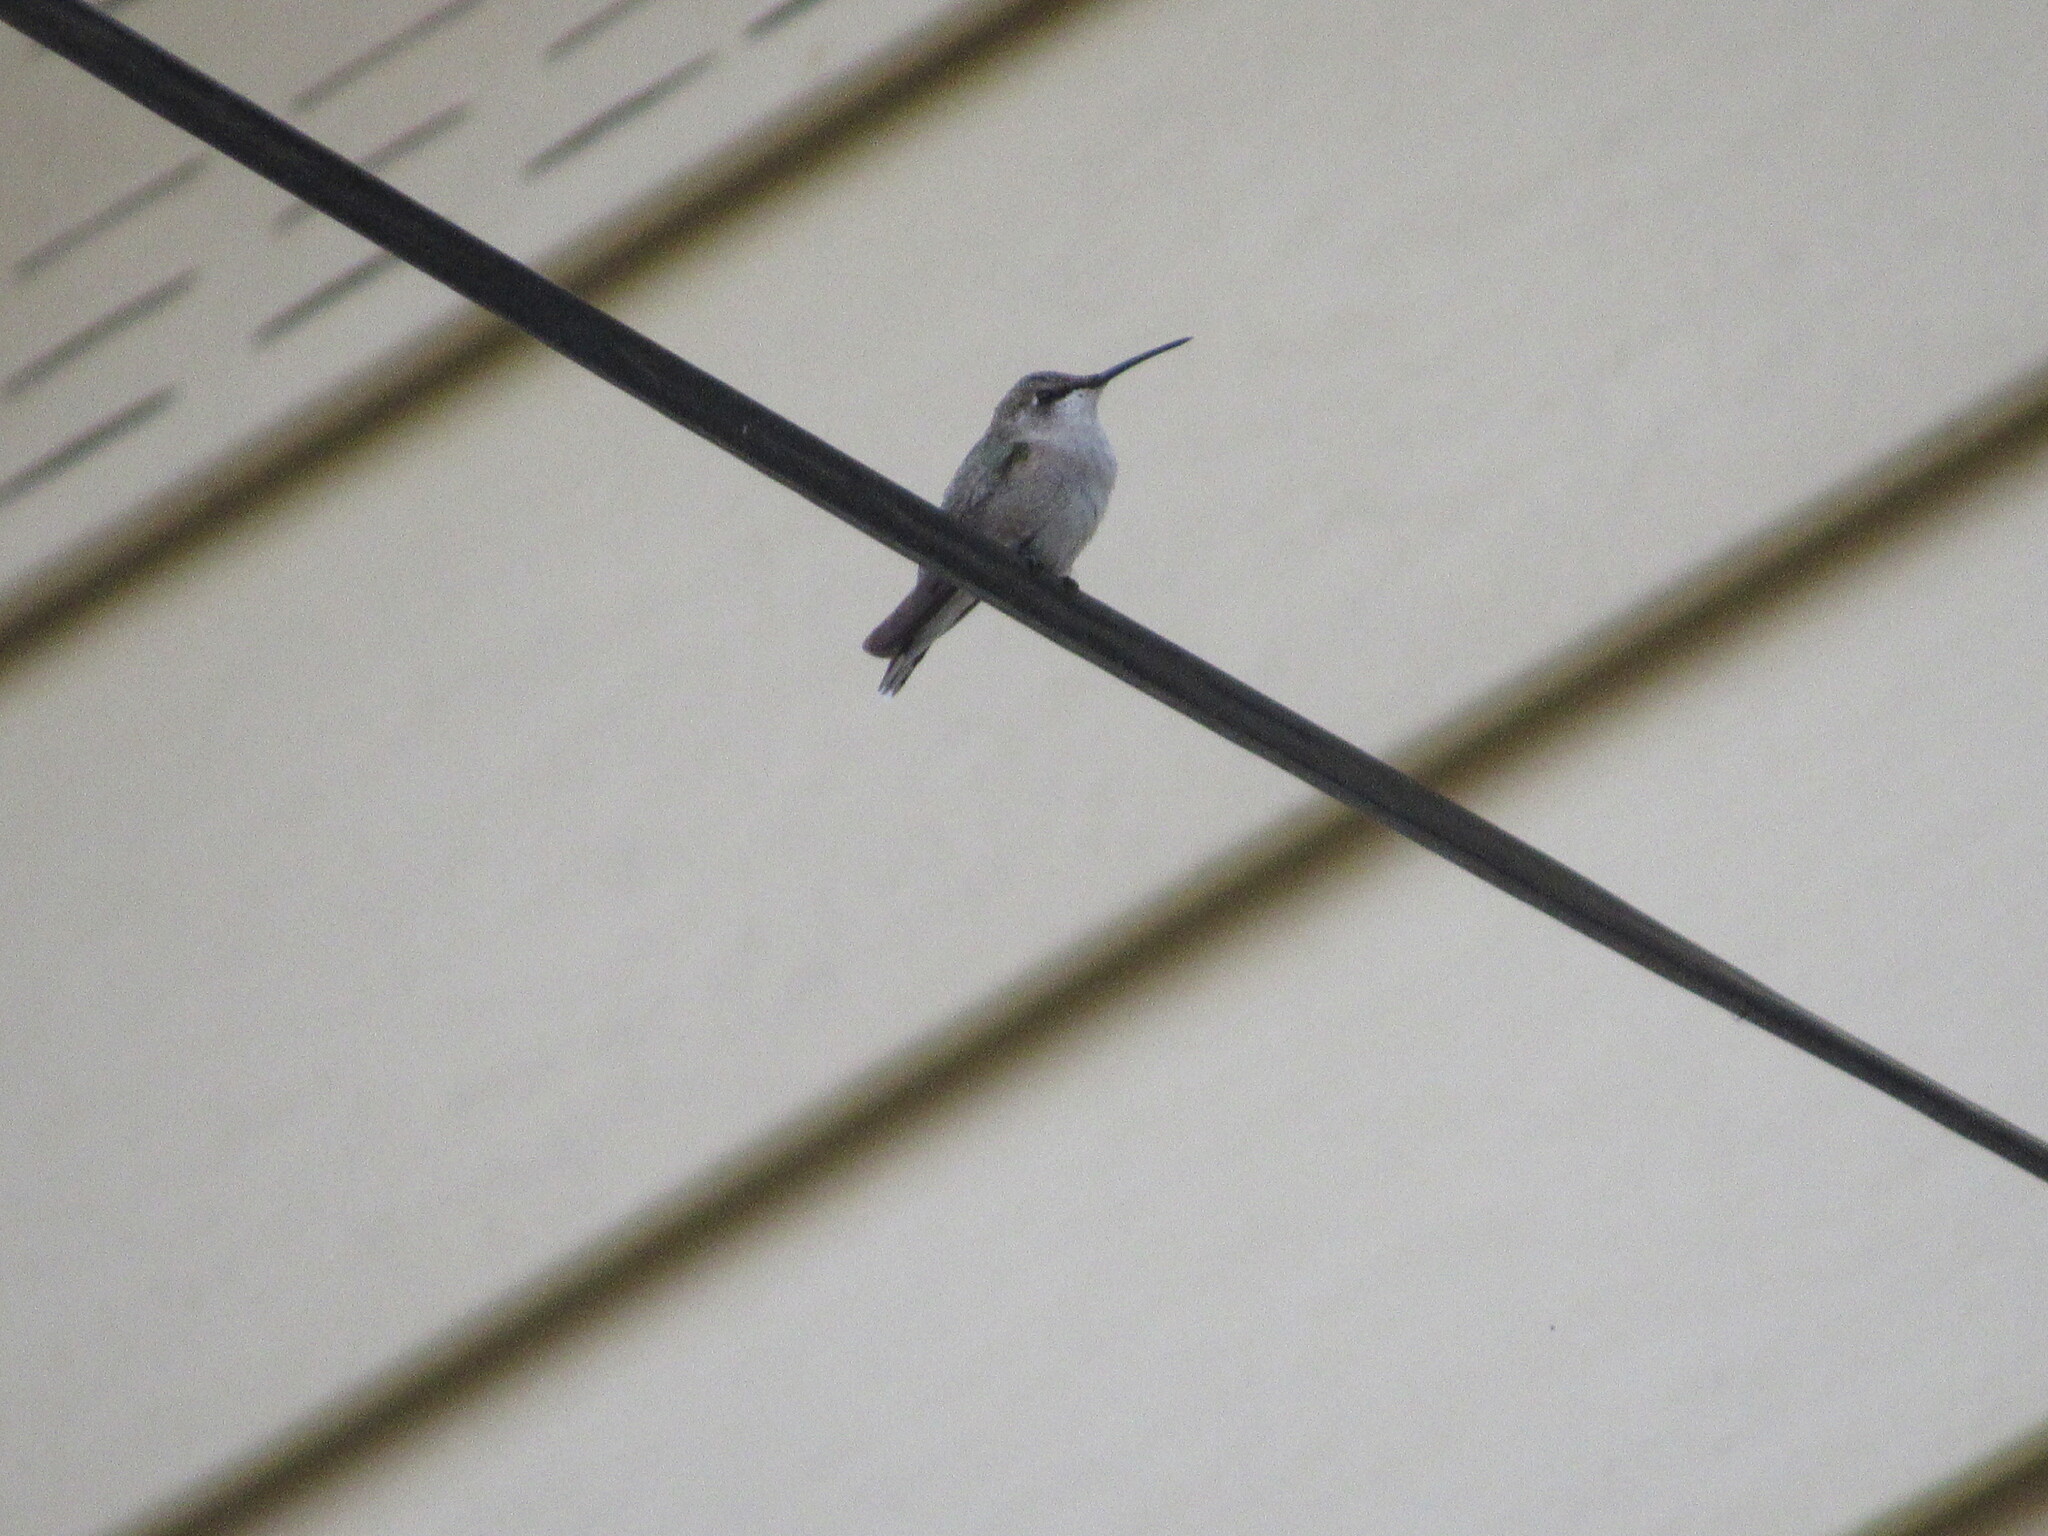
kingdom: Animalia
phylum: Chordata
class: Aves
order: Apodiformes
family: Trochilidae
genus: Archilochus
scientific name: Archilochus alexandri
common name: Black-chinned hummingbird
